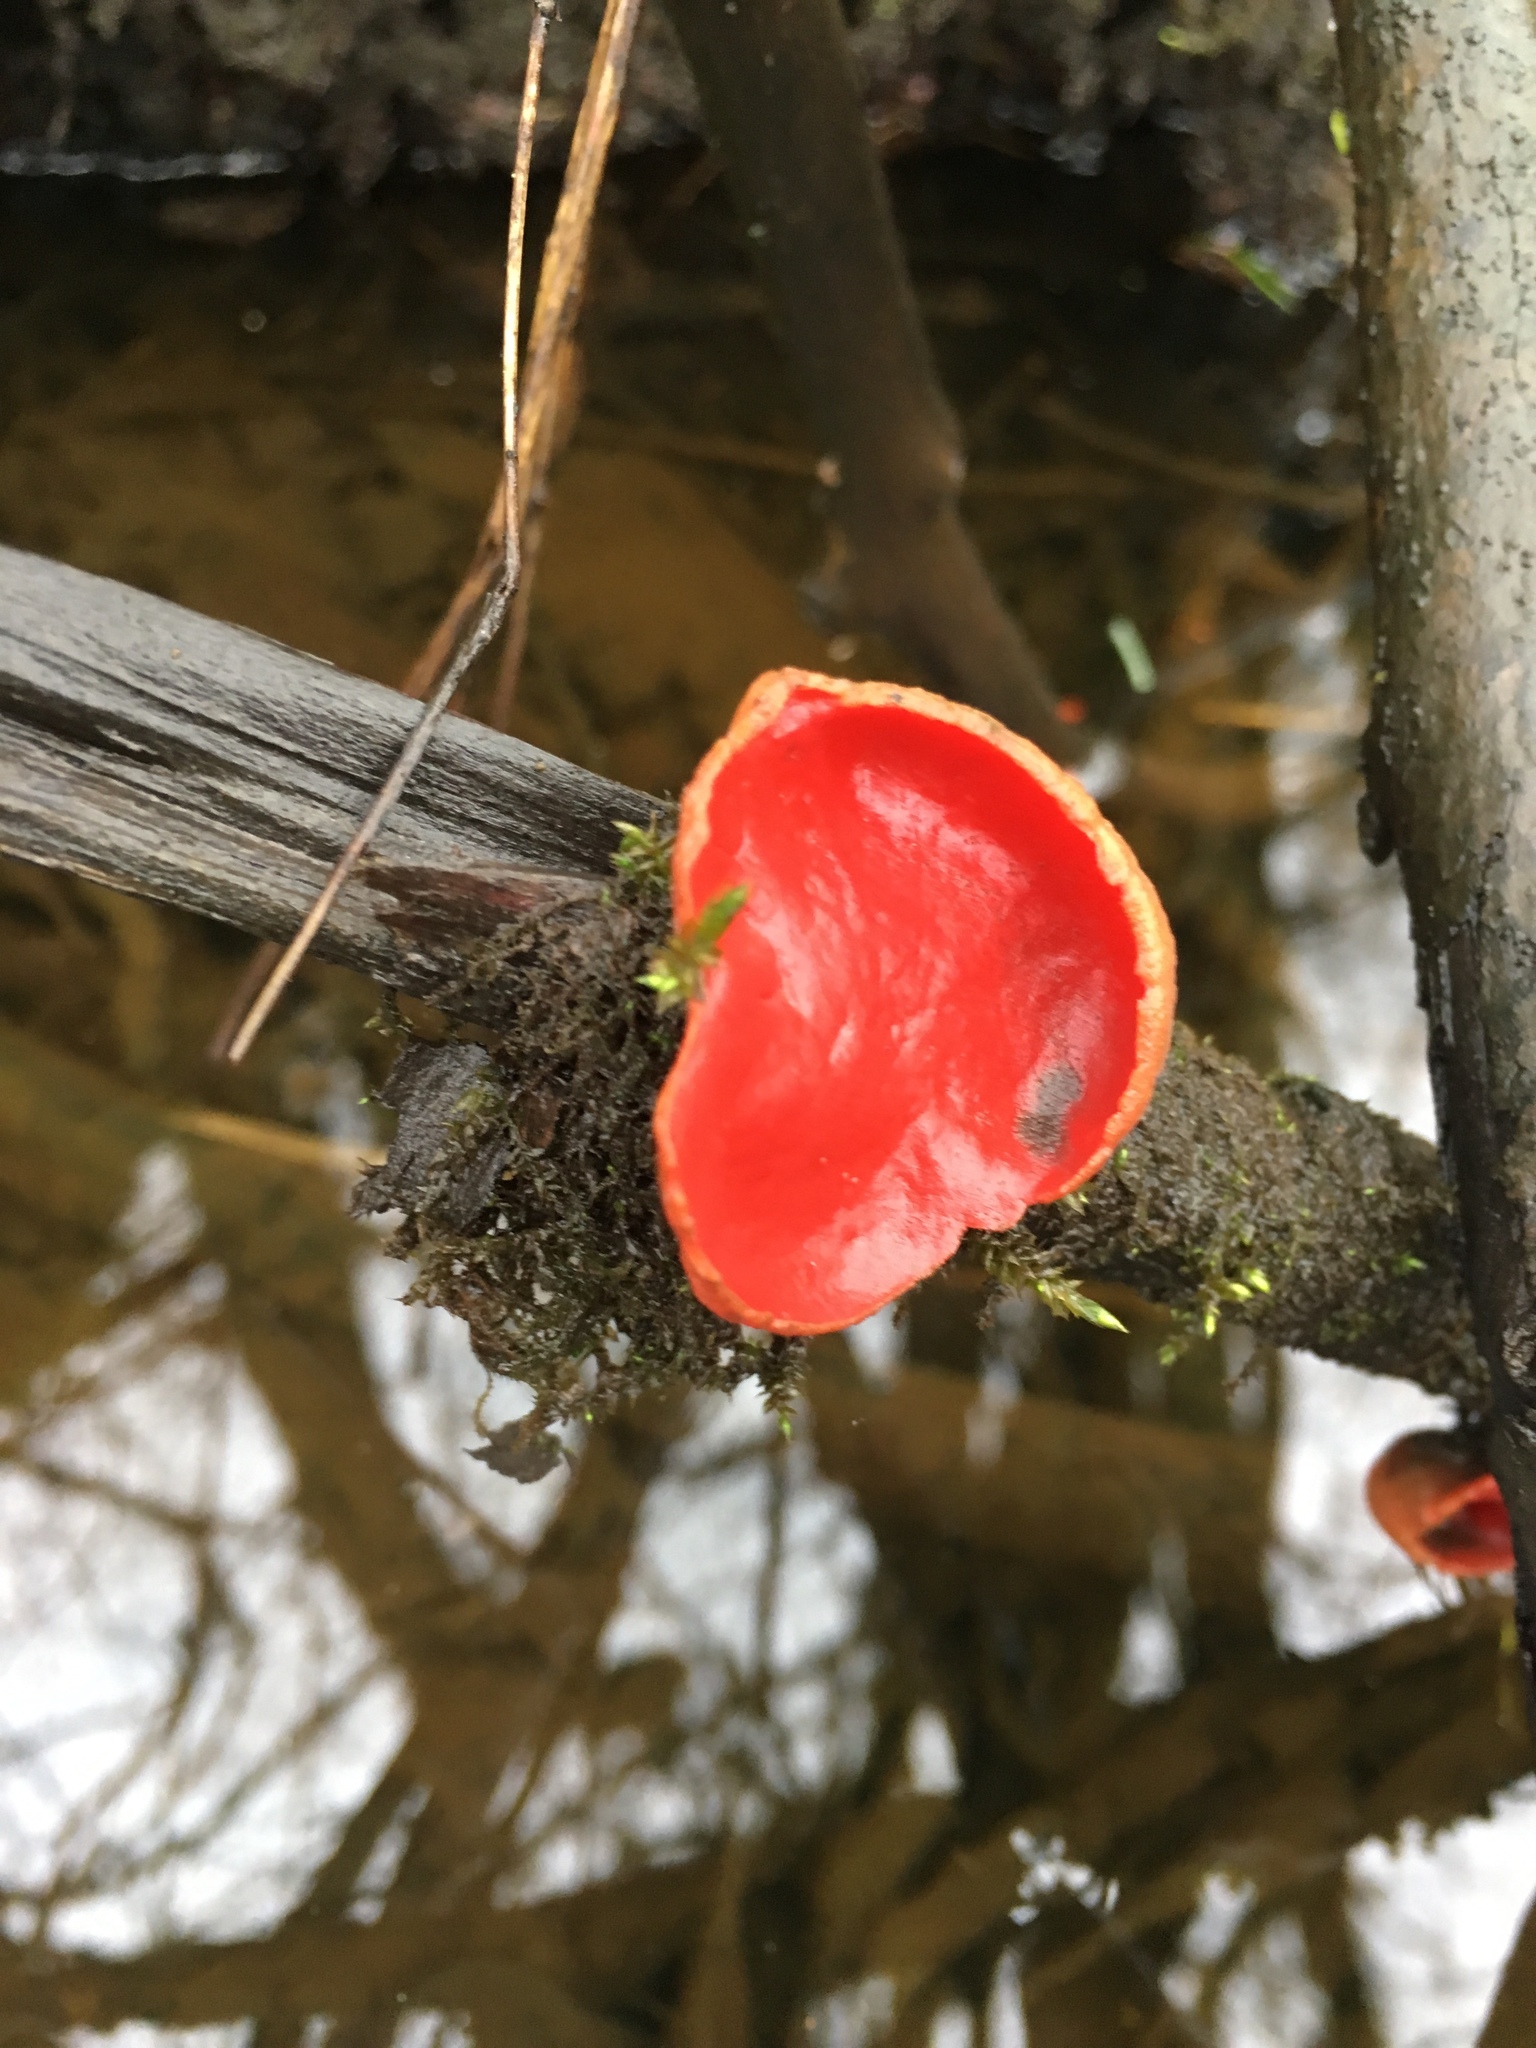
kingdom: Fungi
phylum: Ascomycota
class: Pezizomycetes
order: Pezizales
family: Sarcoscyphaceae
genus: Sarcoscypha
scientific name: Sarcoscypha
